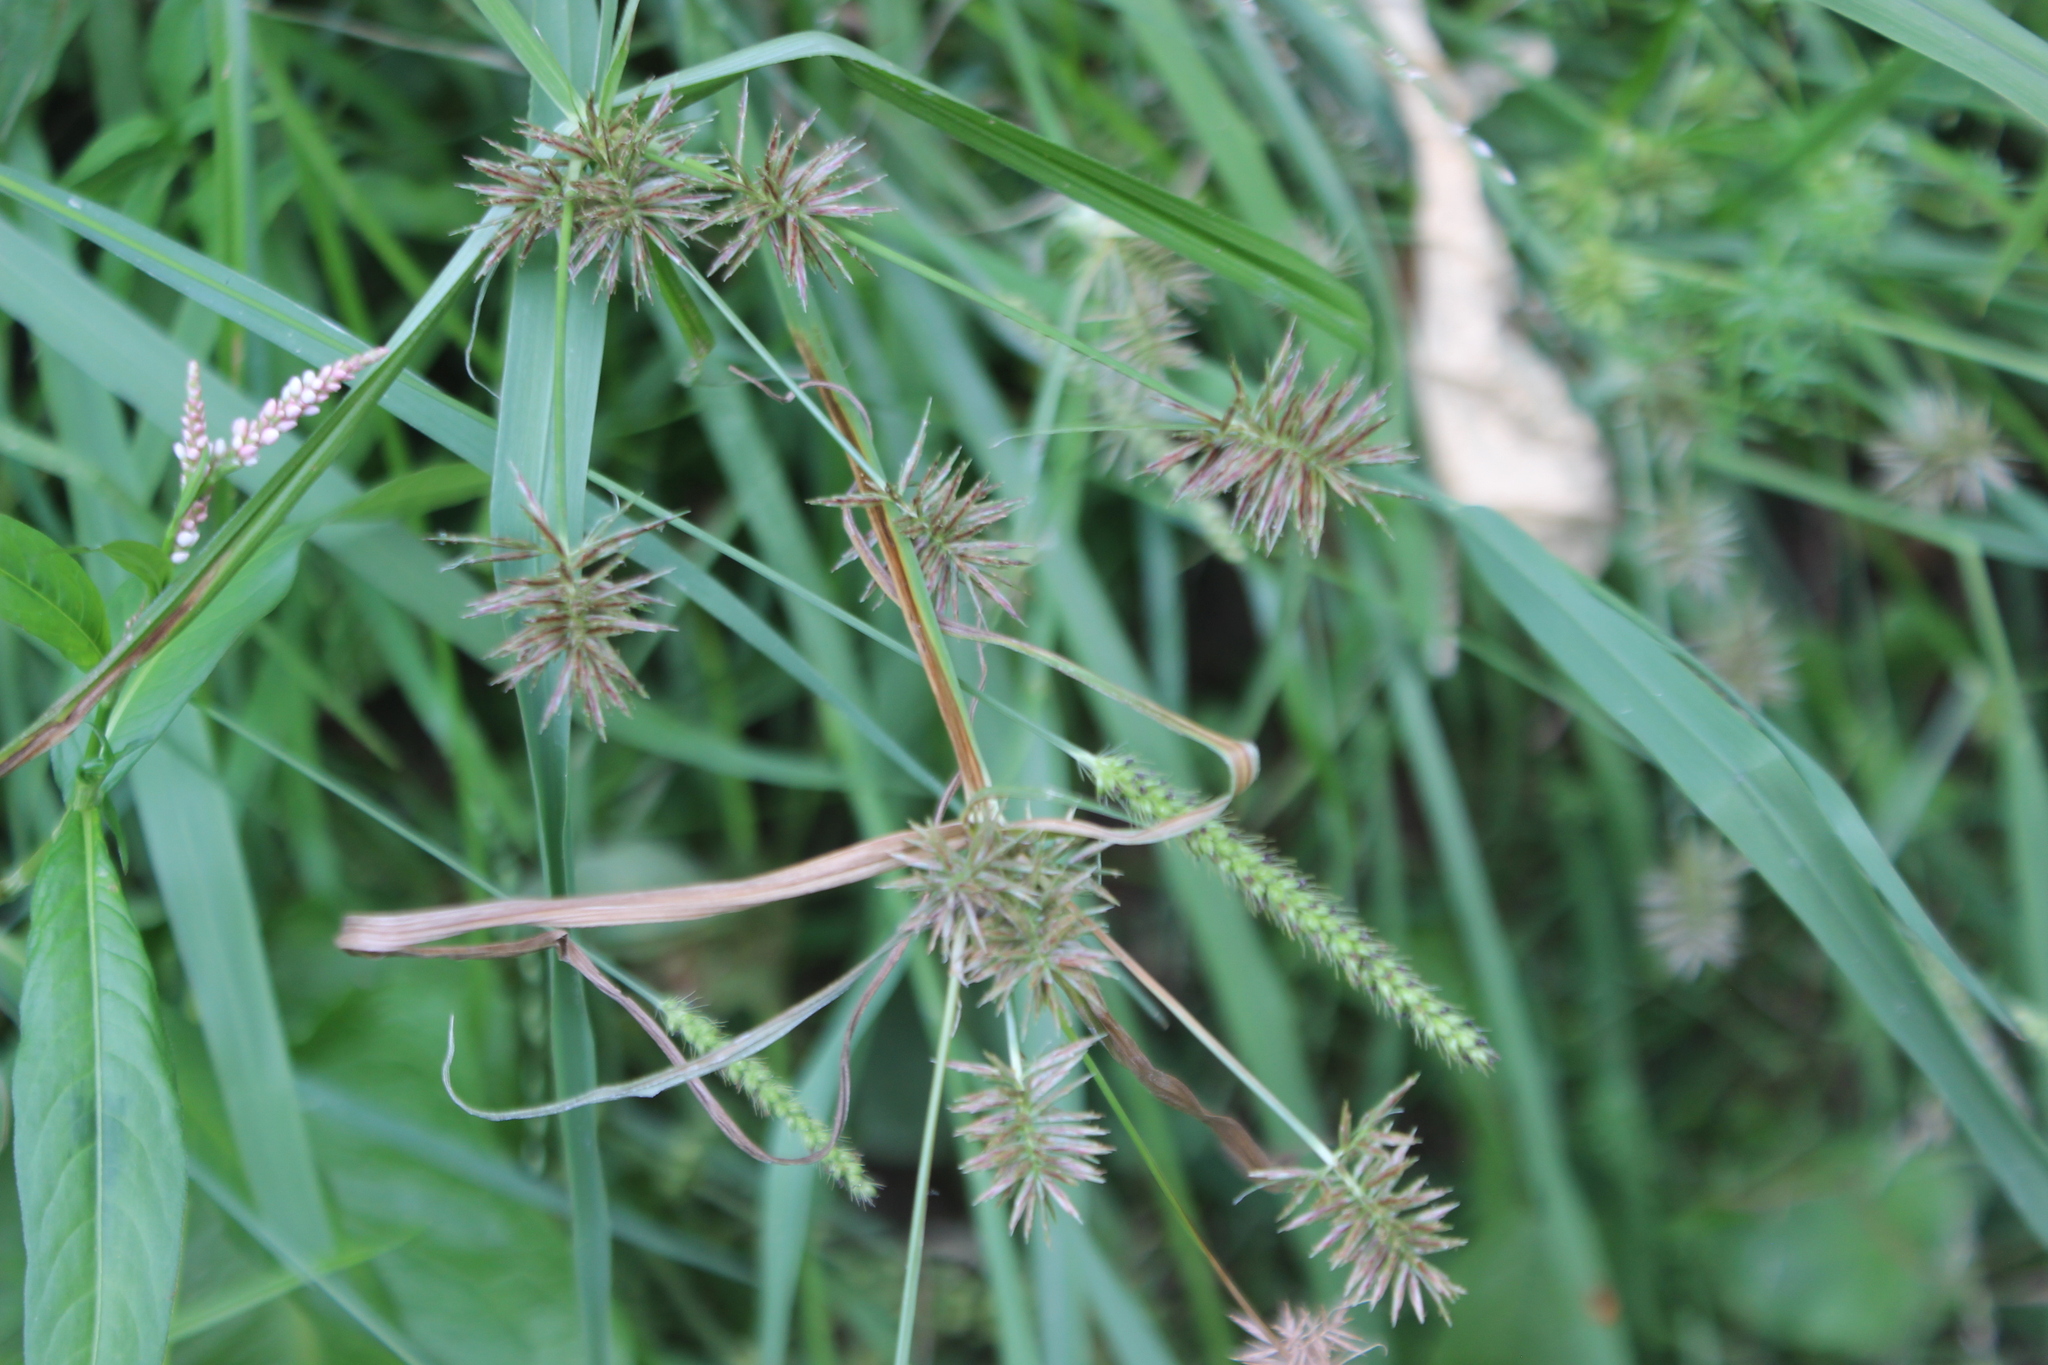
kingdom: Plantae
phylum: Tracheophyta
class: Liliopsida
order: Poales
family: Cyperaceae
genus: Cyperus
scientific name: Cyperus congestus
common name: Dense flat sedge
